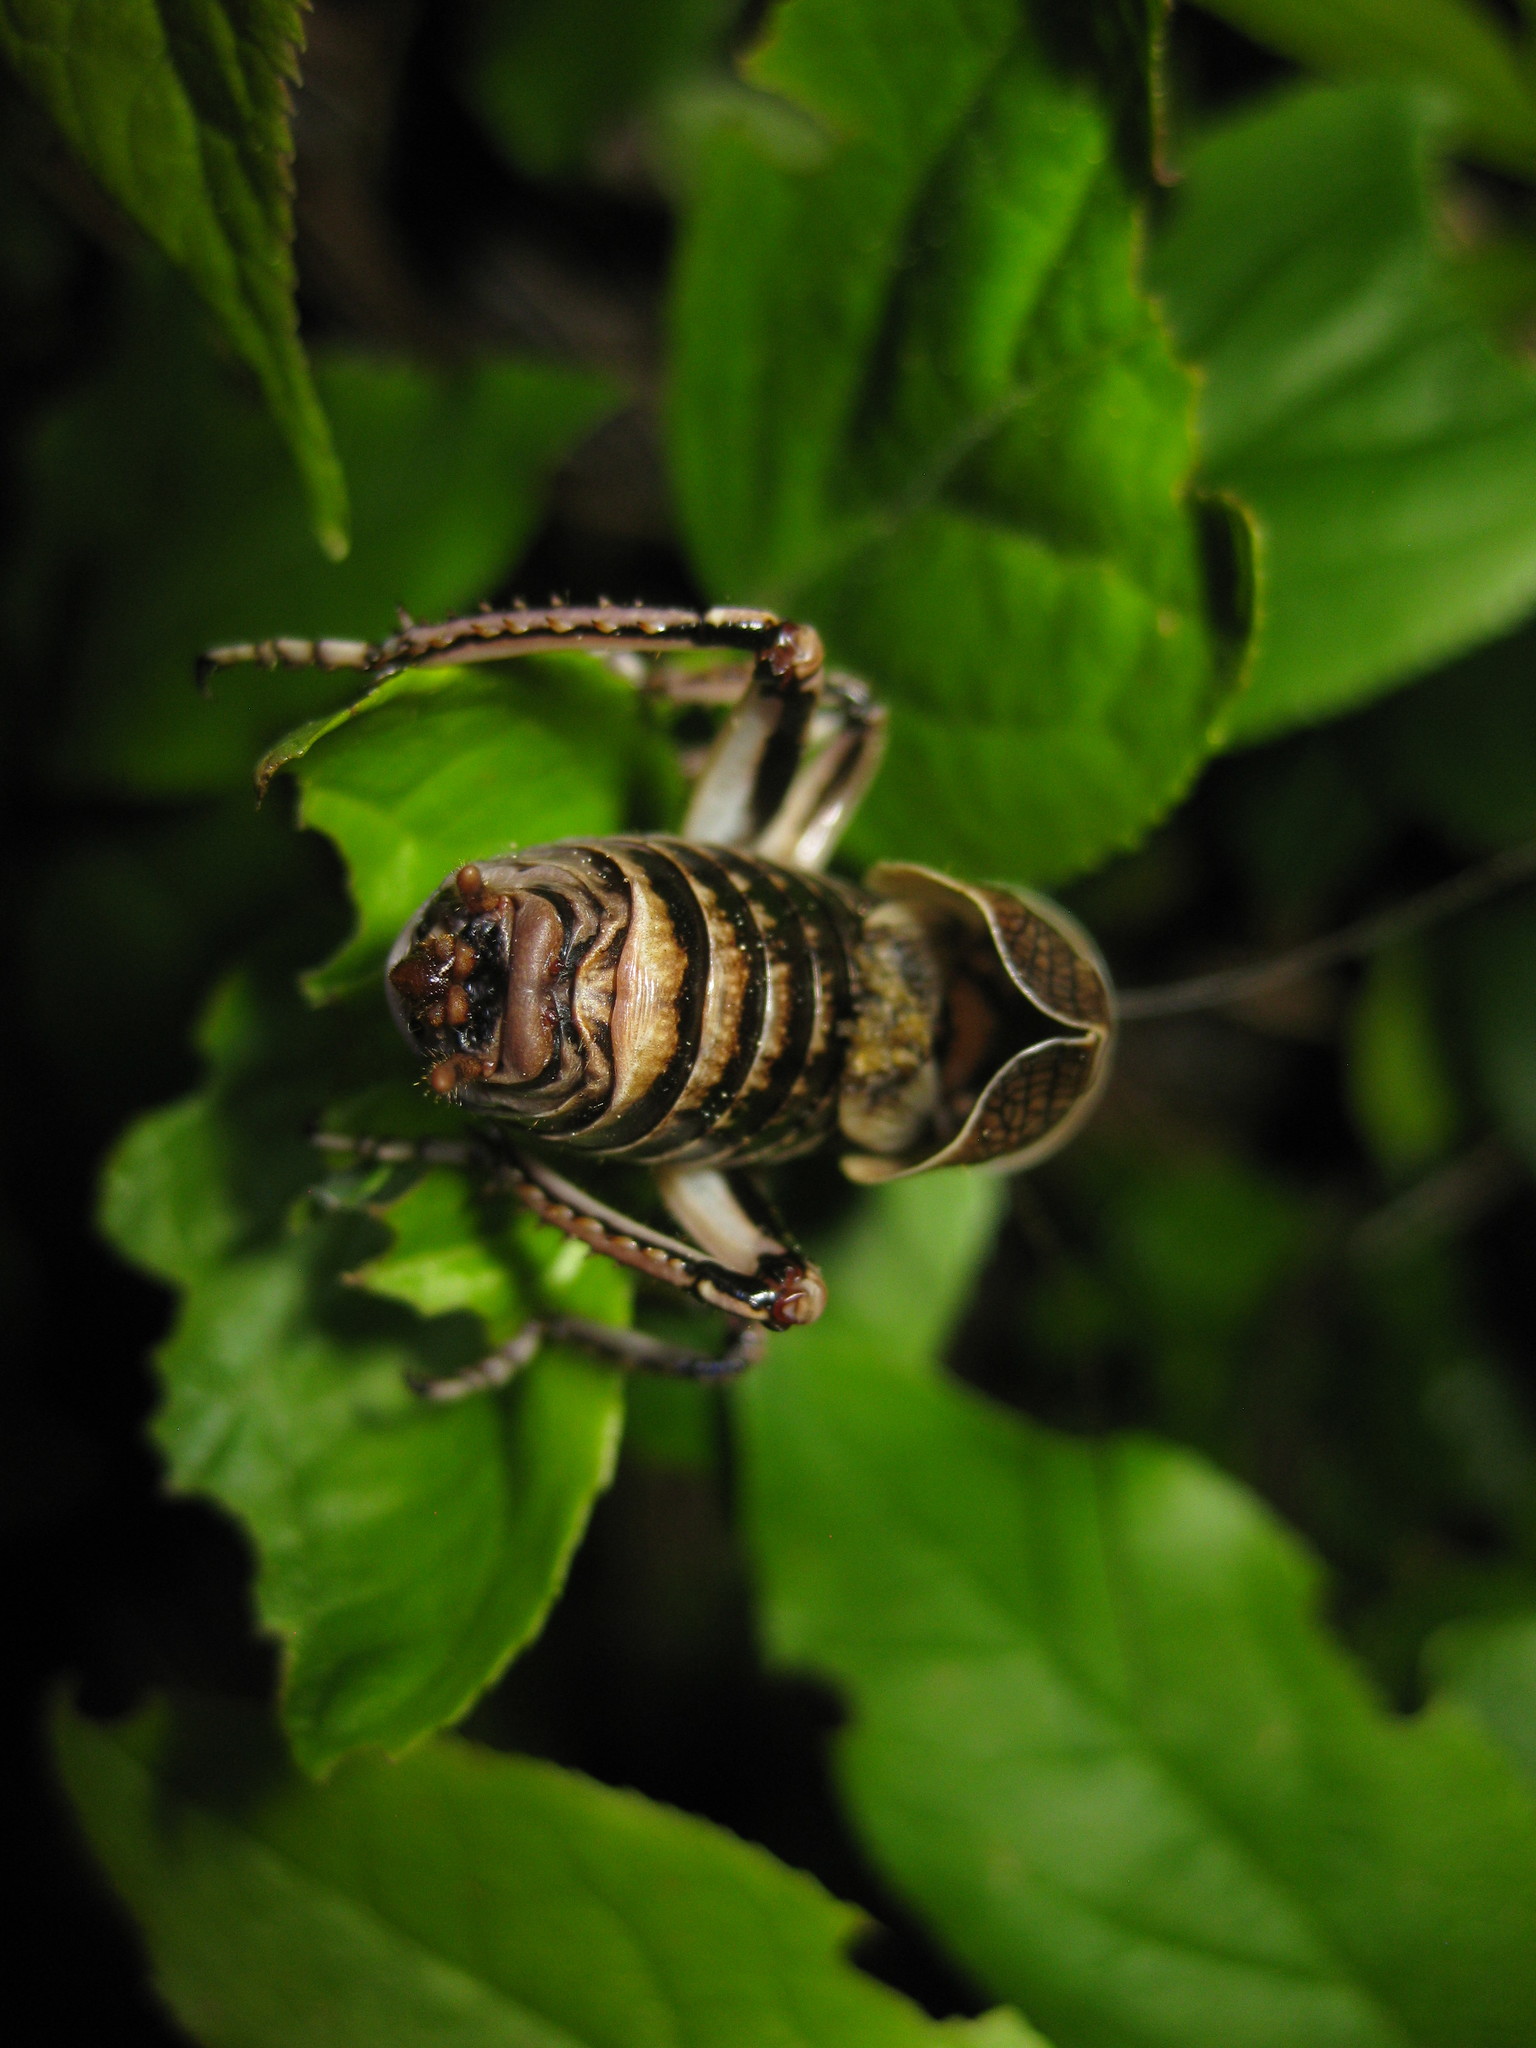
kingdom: Animalia
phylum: Arthropoda
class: Insecta
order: Orthoptera
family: Prophalangopsidae
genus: Cyphoderris
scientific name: Cyphoderris buckelli
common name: Buckell’s grig
